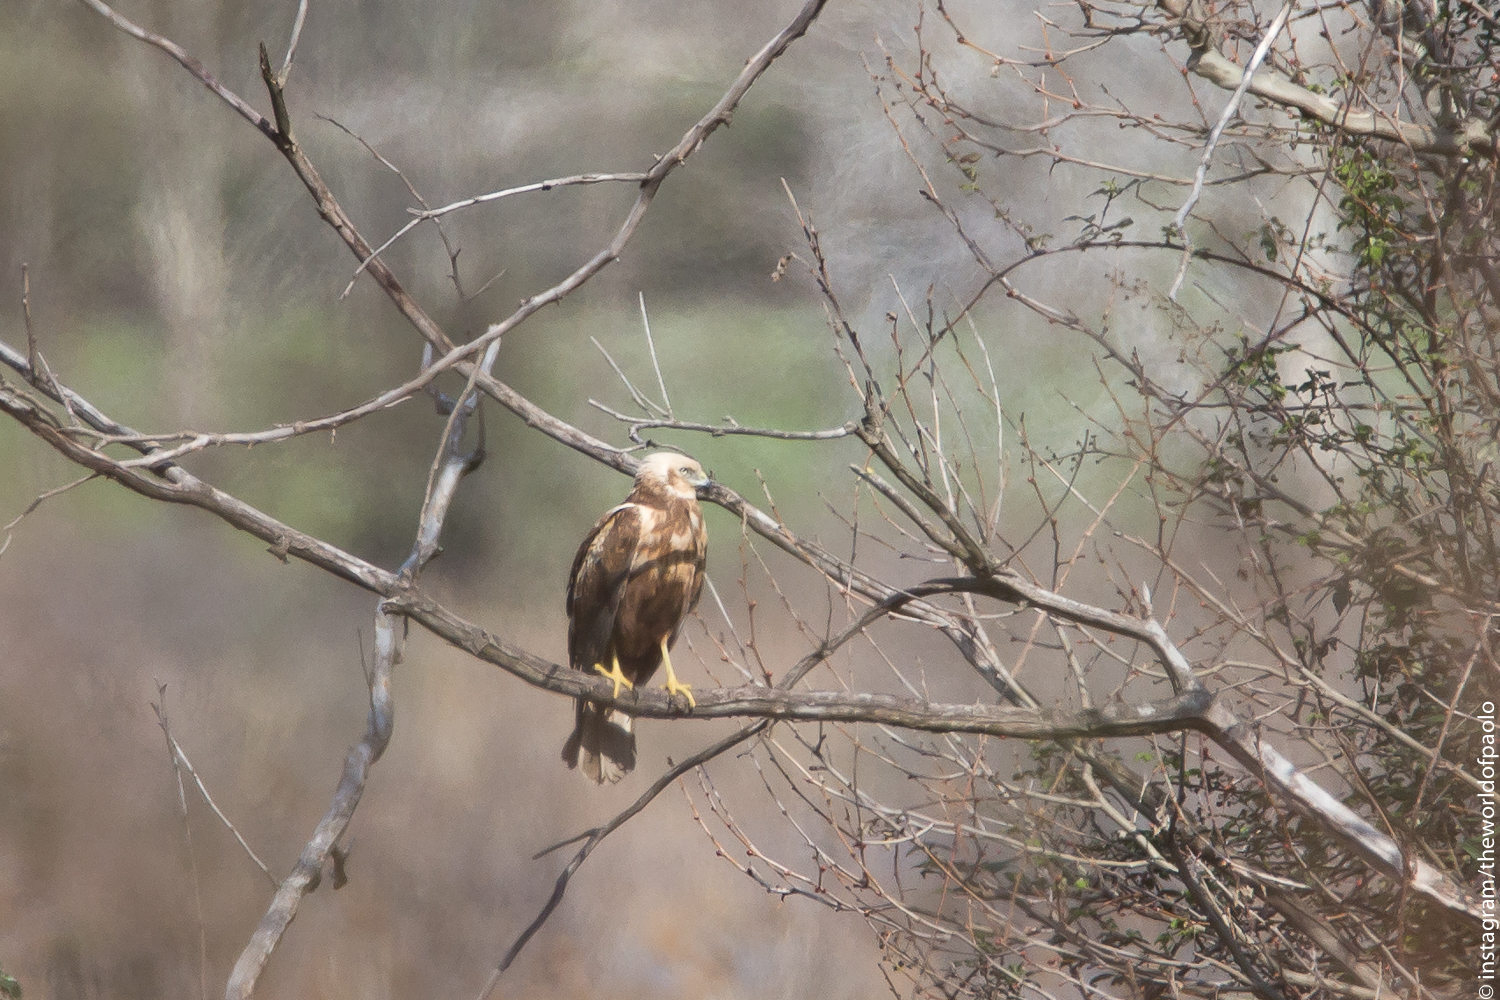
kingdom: Animalia
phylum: Chordata
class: Aves
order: Accipitriformes
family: Accipitridae
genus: Circus
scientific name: Circus aeruginosus
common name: Western marsh harrier
